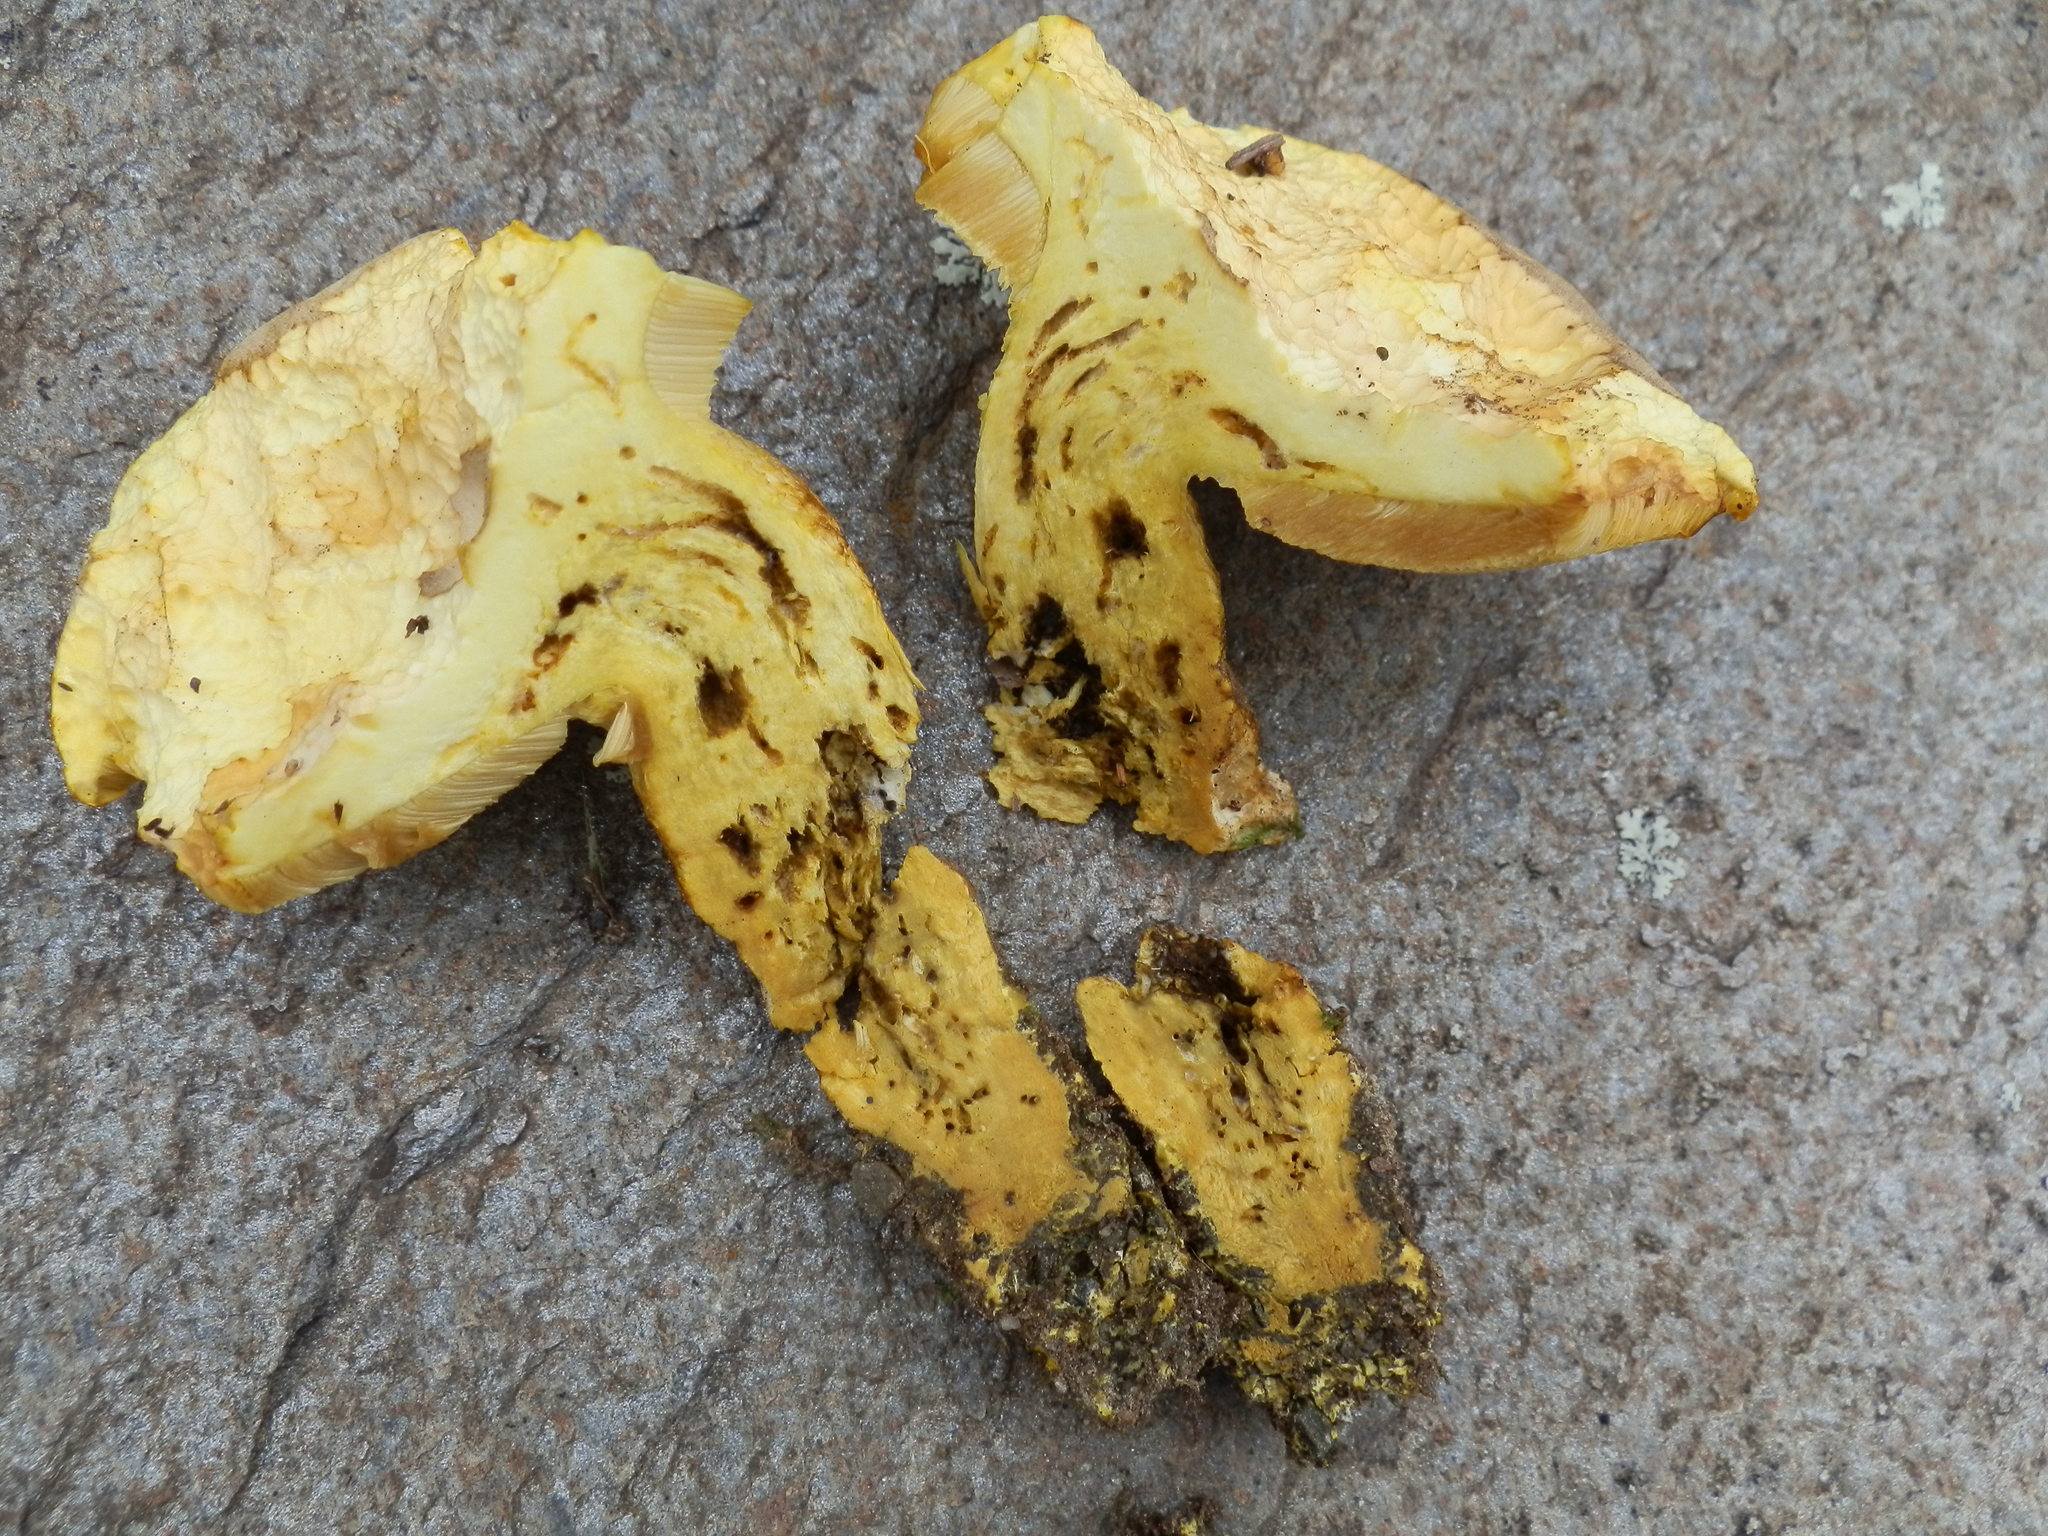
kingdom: Fungi
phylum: Basidiomycota
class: Agaricomycetes
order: Boletales
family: Boletaceae
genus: Retiboletus
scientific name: Retiboletus ornatipes
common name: Ornate-stalked bolete
